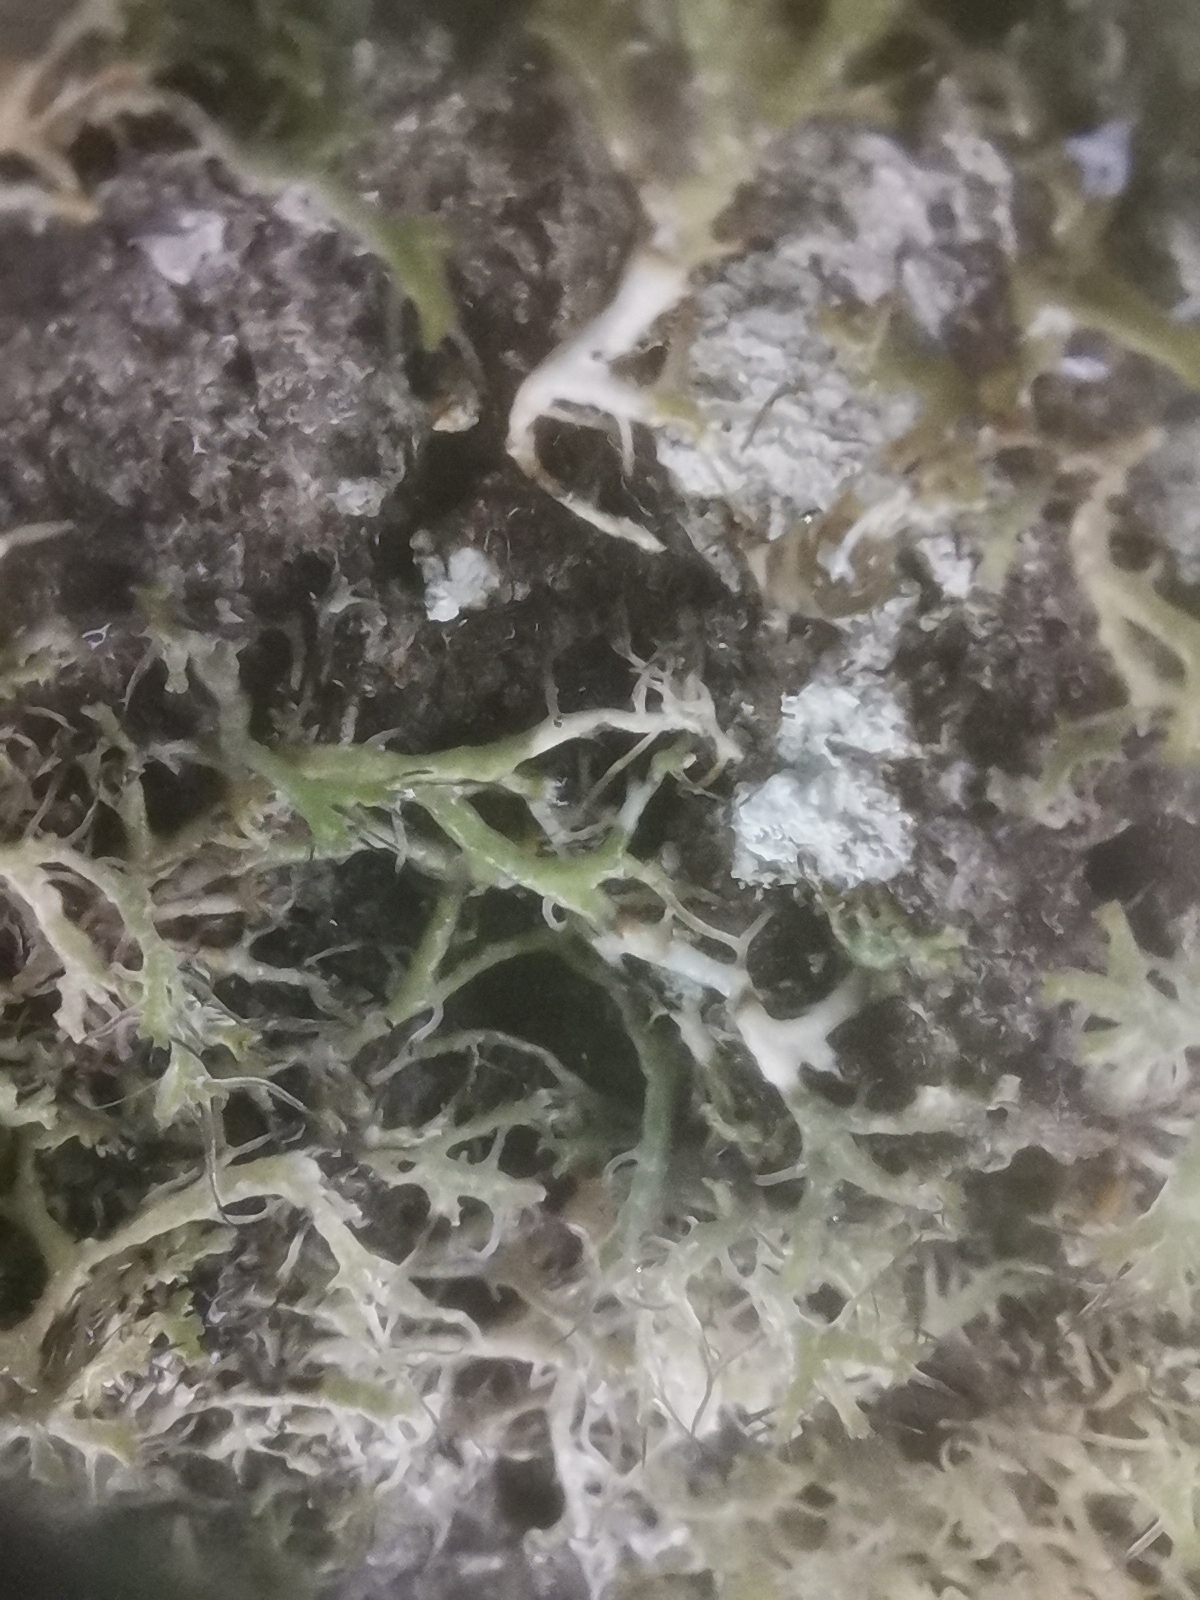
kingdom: Fungi
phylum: Ascomycota
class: Lecanoromycetes
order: Caliciales
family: Physciaceae
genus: Anaptychia
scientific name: Anaptychia ciliaris
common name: Great ciliated lichen
